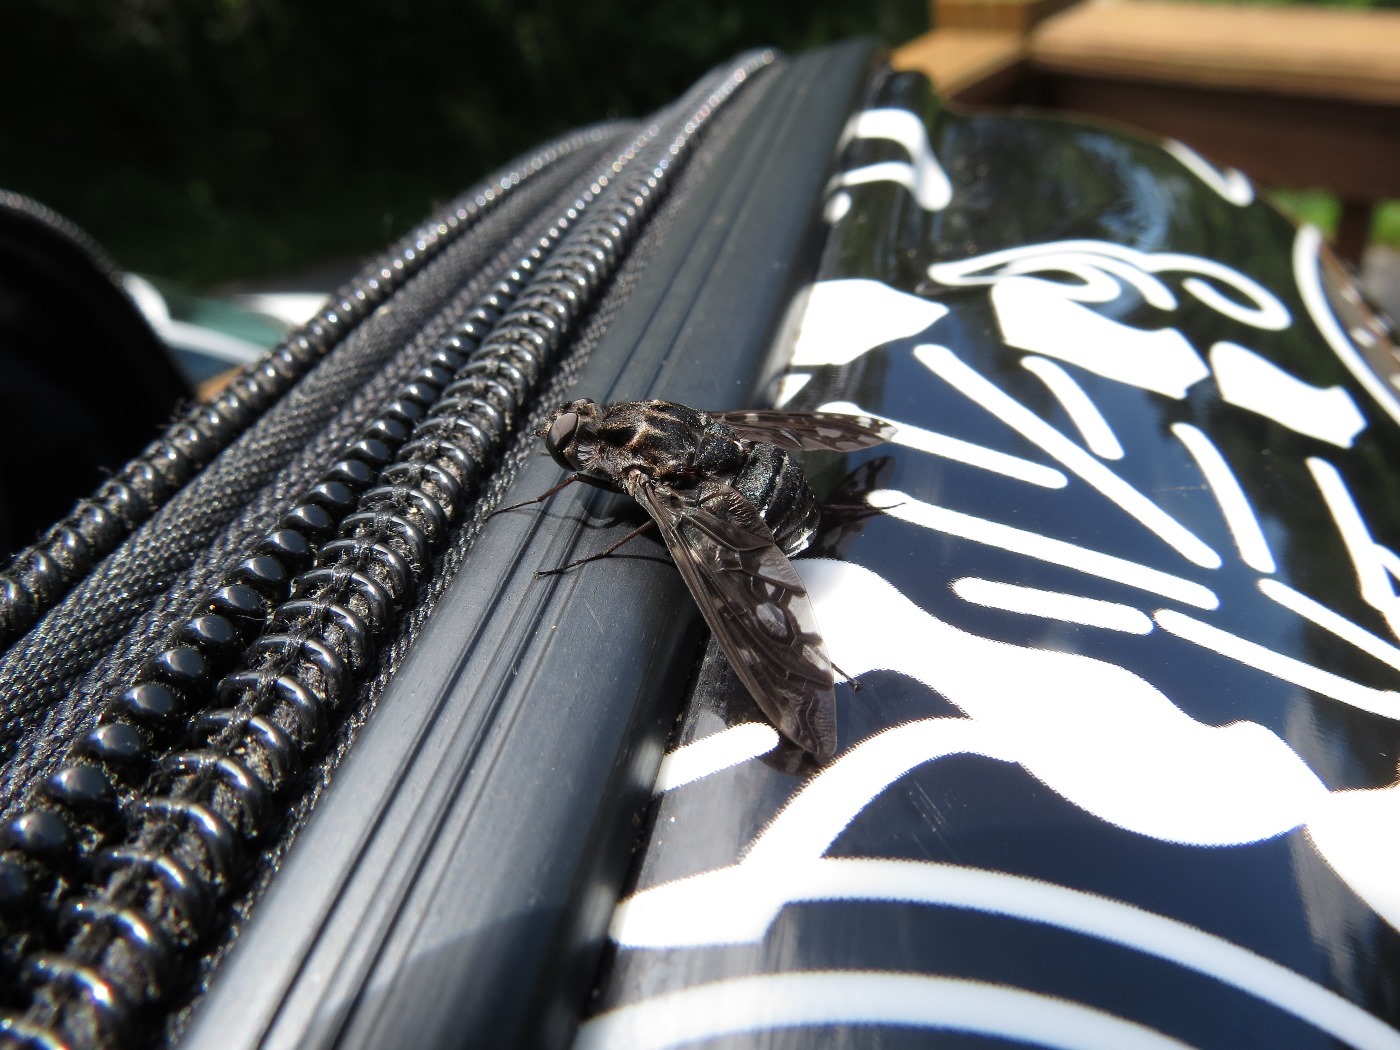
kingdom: Animalia
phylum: Arthropoda
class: Insecta
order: Diptera
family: Bombyliidae
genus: Xenox
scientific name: Xenox tigrinus
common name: Tiger bee fly
